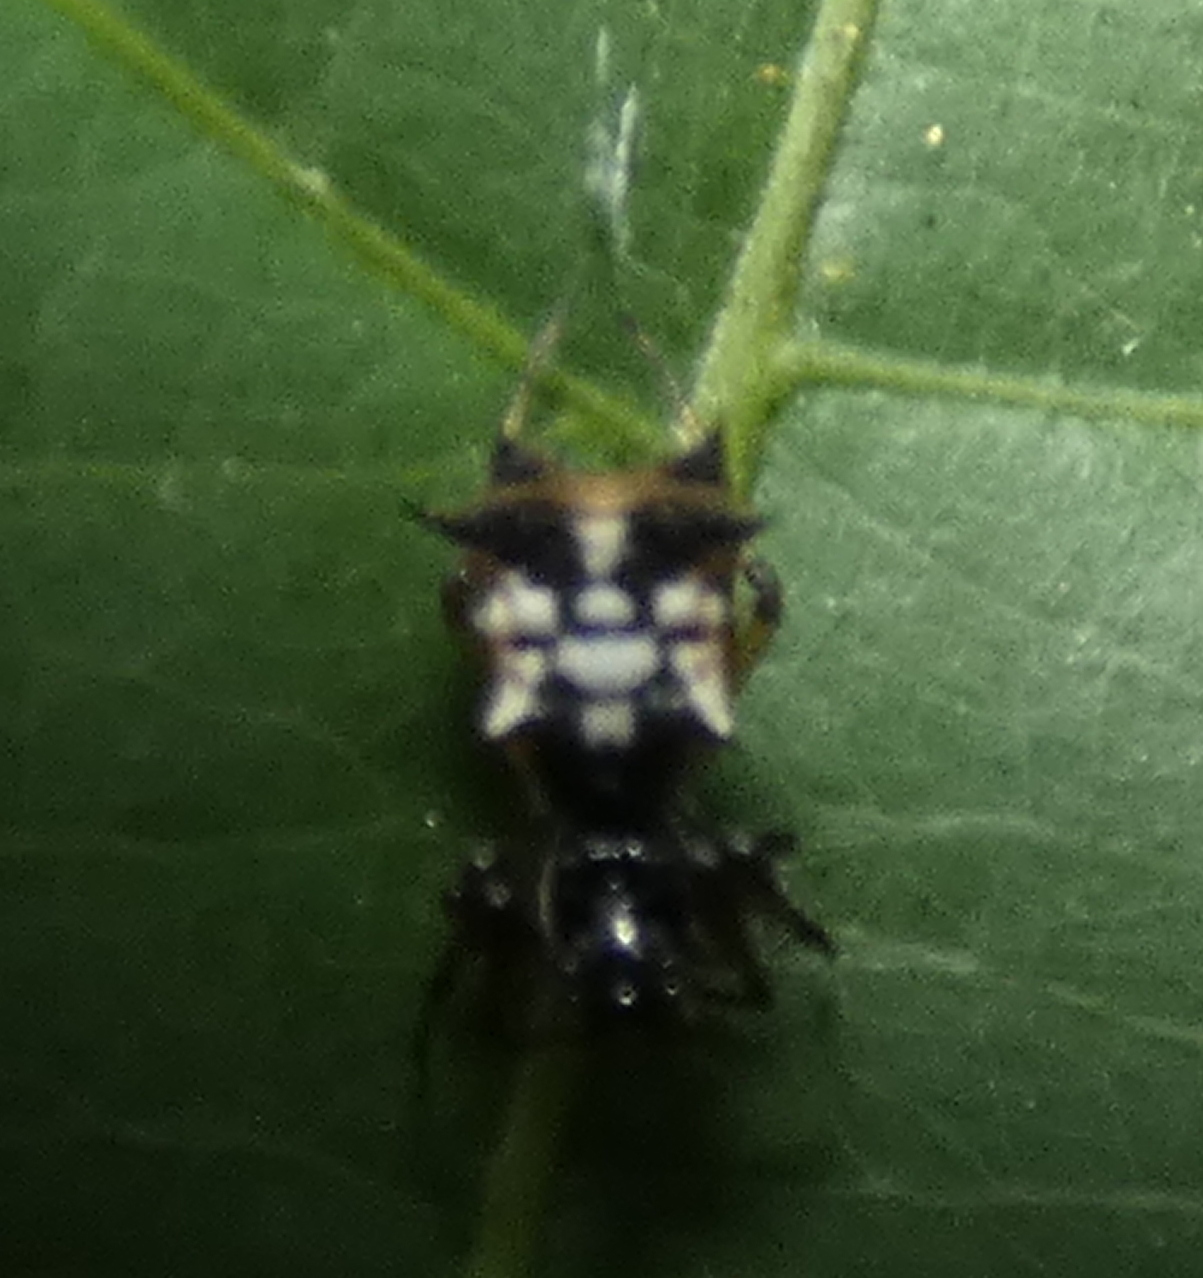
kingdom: Animalia
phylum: Arthropoda
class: Arachnida
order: Araneae
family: Araneidae
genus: Micrathena
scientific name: Micrathena picta
